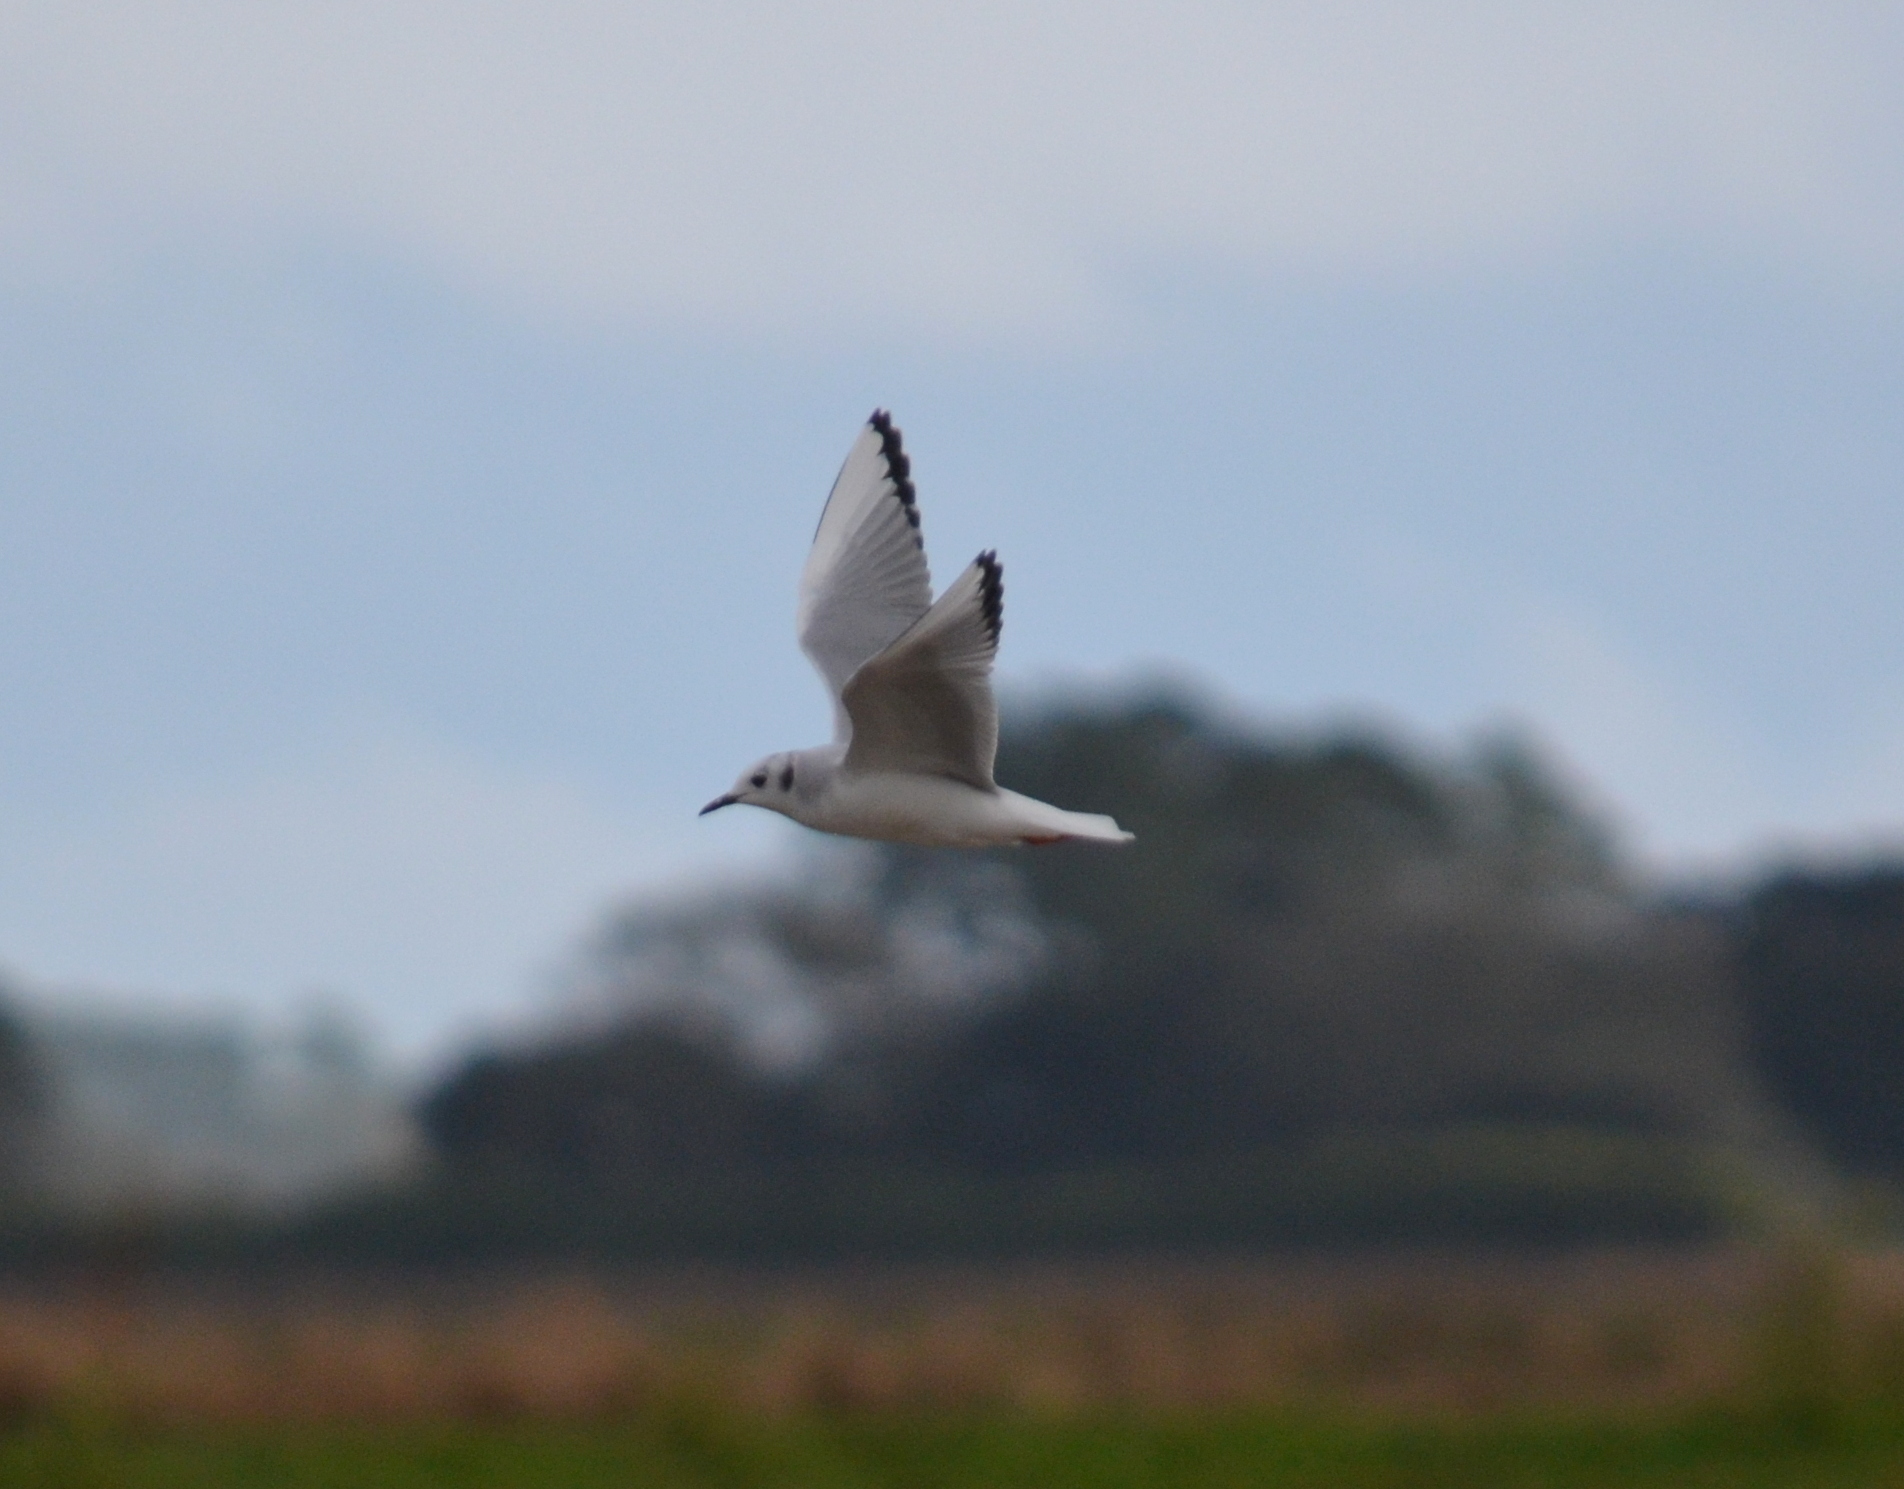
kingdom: Animalia
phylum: Chordata
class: Aves
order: Charadriiformes
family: Laridae
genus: Chroicocephalus
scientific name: Chroicocephalus philadelphia
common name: Bonaparte's gull
